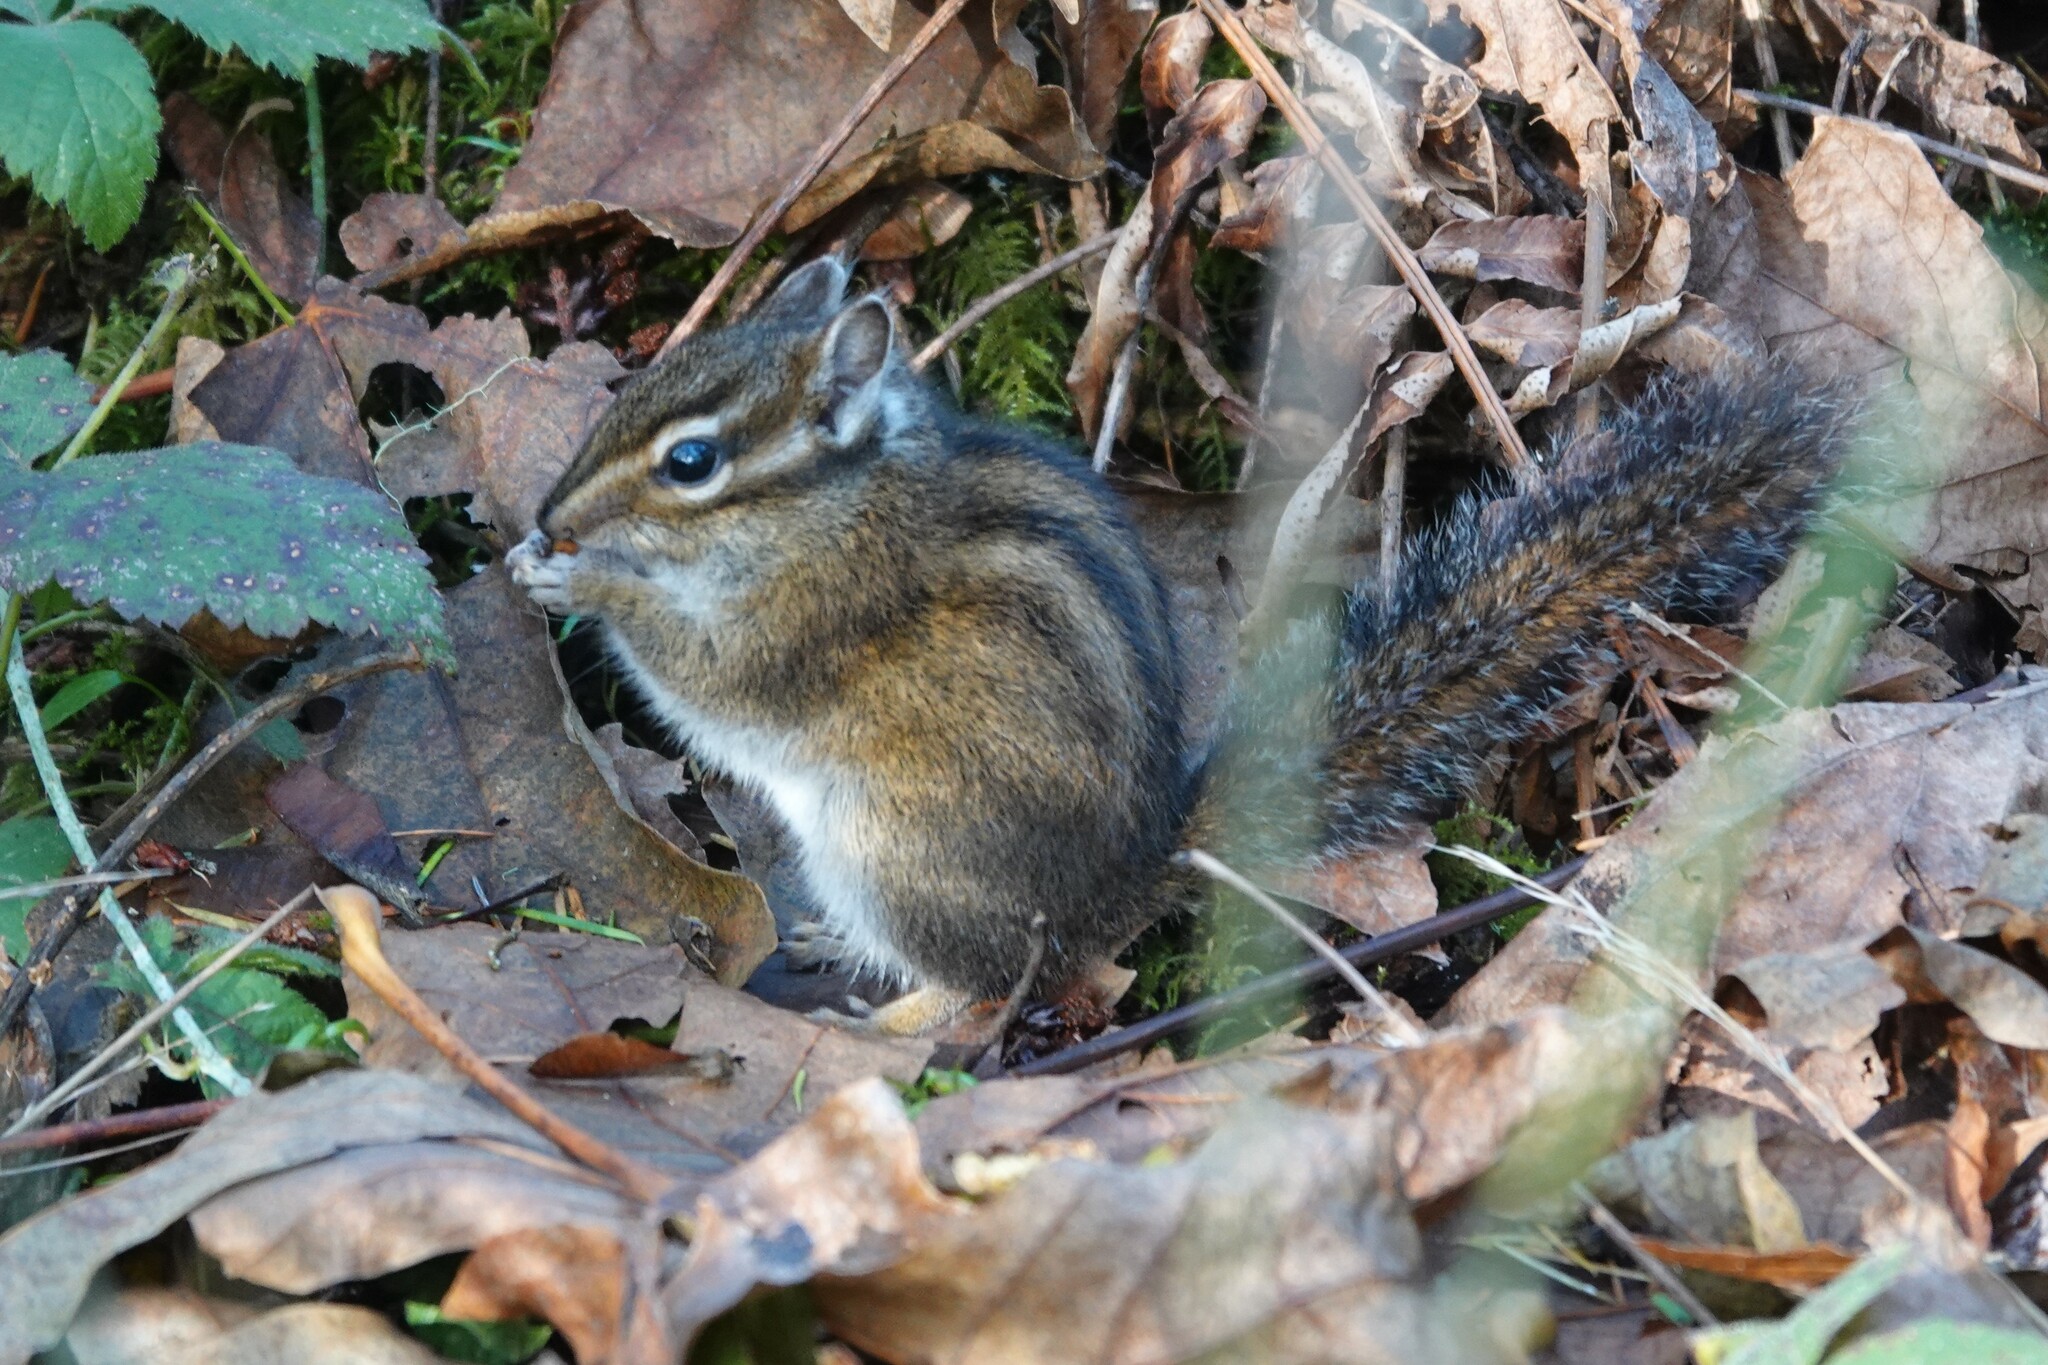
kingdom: Animalia
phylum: Chordata
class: Mammalia
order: Rodentia
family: Sciuridae
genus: Tamias
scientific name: Tamias townsendii
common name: Townsend's chipmunk
